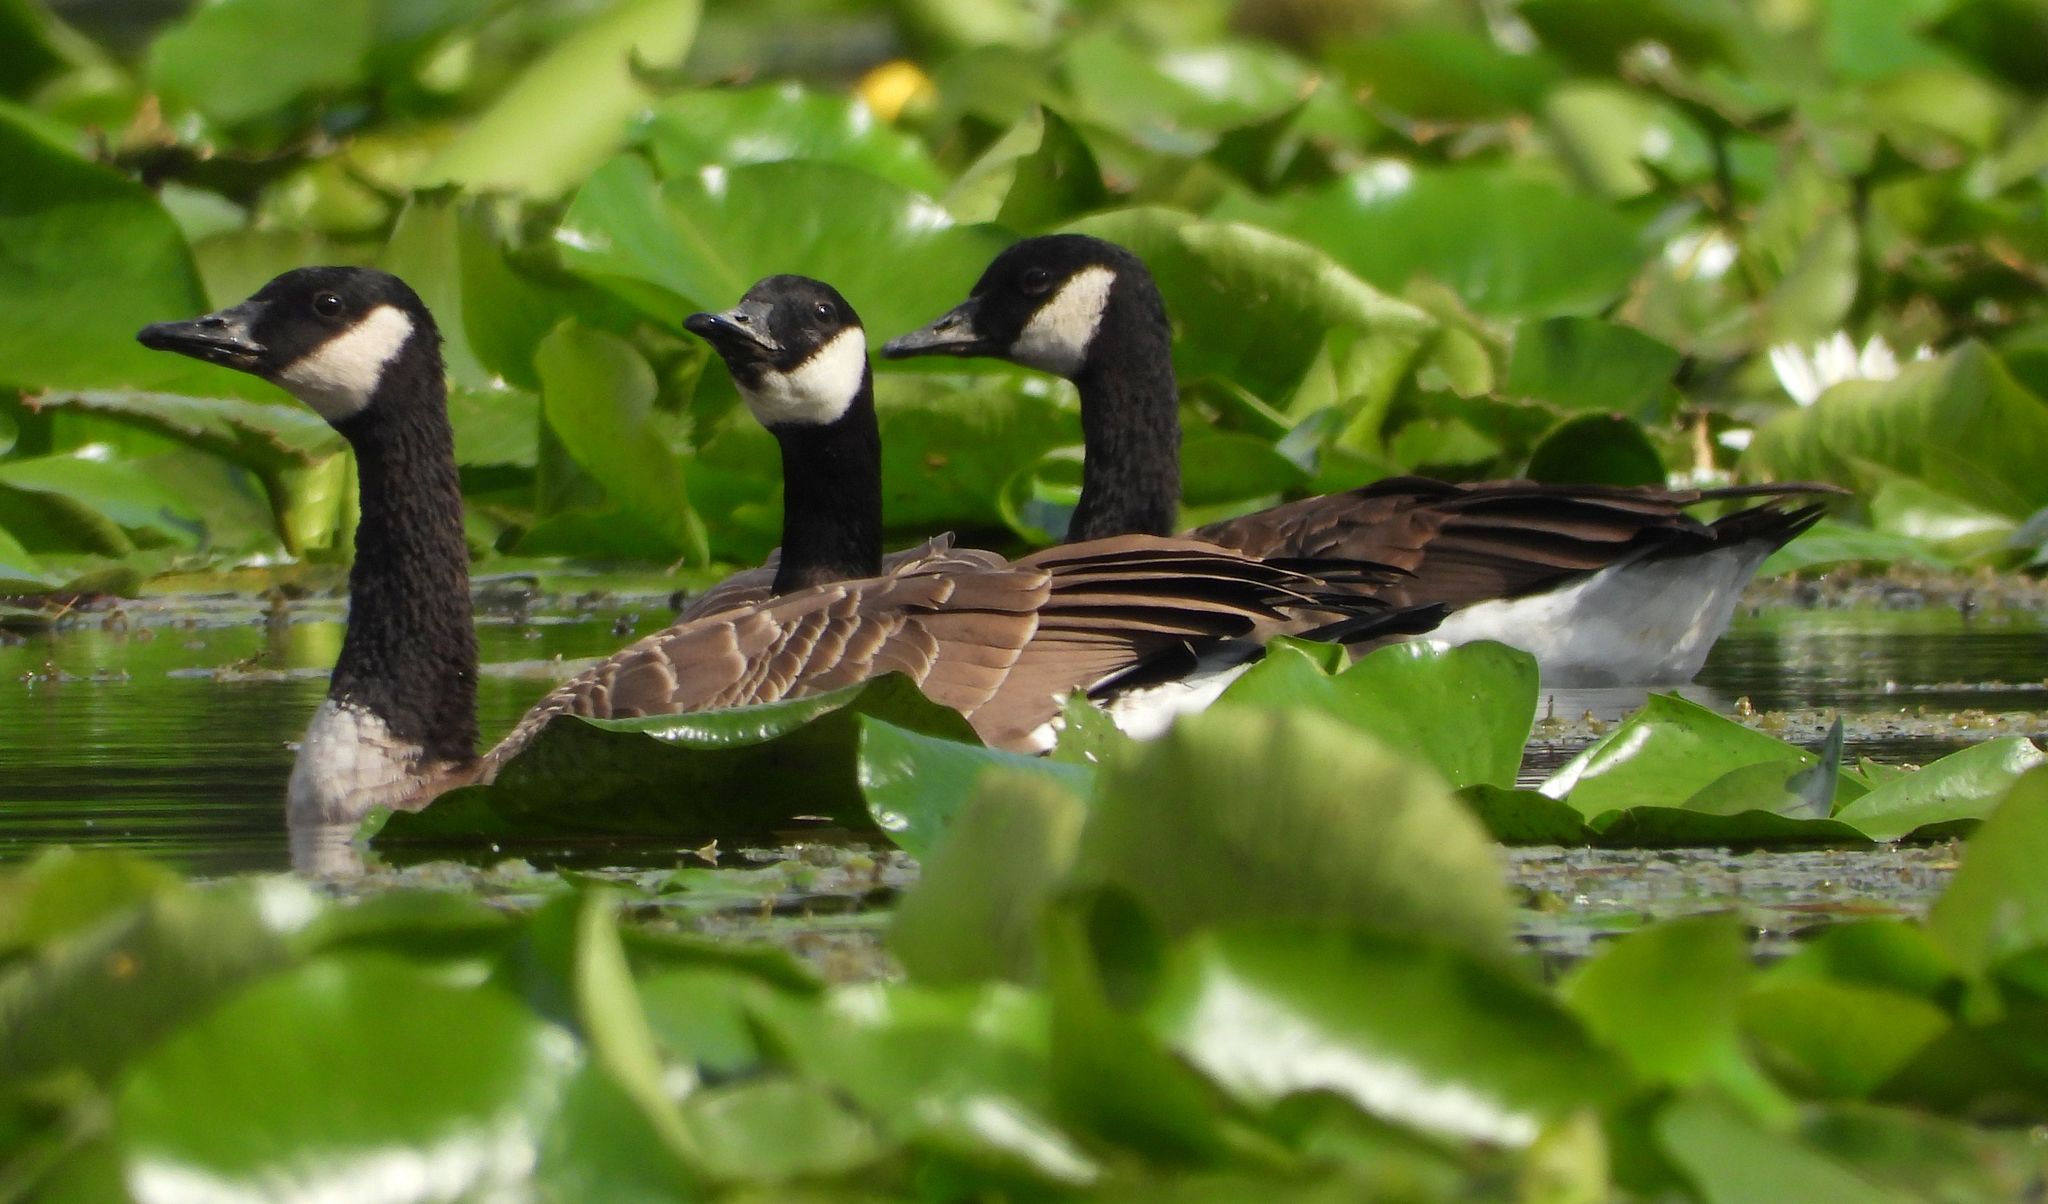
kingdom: Animalia
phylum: Chordata
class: Aves
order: Anseriformes
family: Anatidae
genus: Branta
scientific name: Branta canadensis
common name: Canada goose
